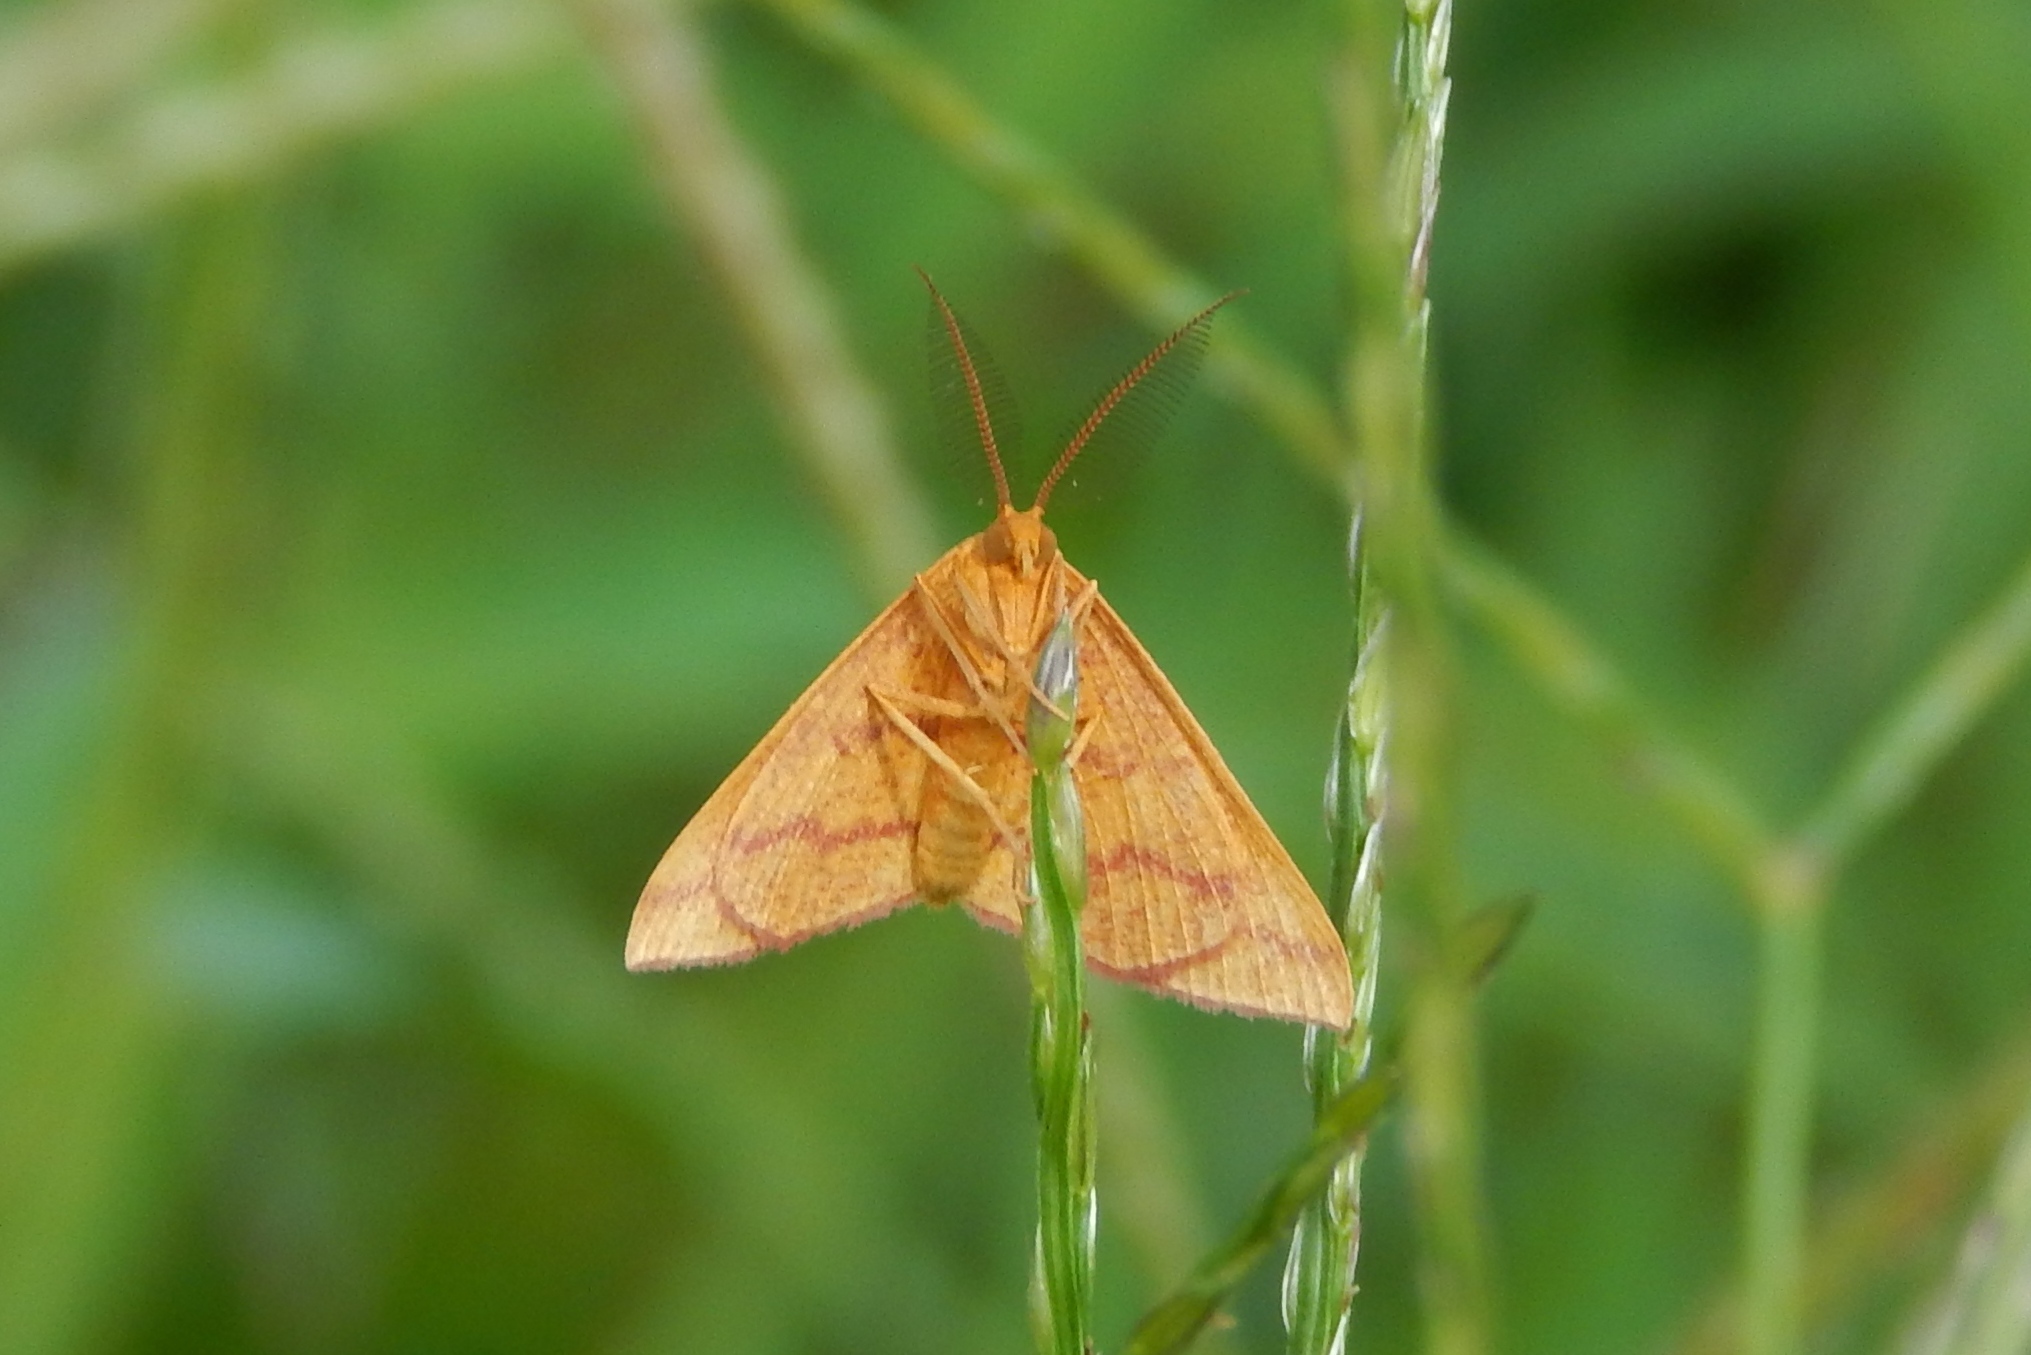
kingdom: Animalia
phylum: Arthropoda
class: Insecta
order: Lepidoptera
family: Geometridae
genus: Haematopis
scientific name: Haematopis grataria
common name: Chickweed geometer
